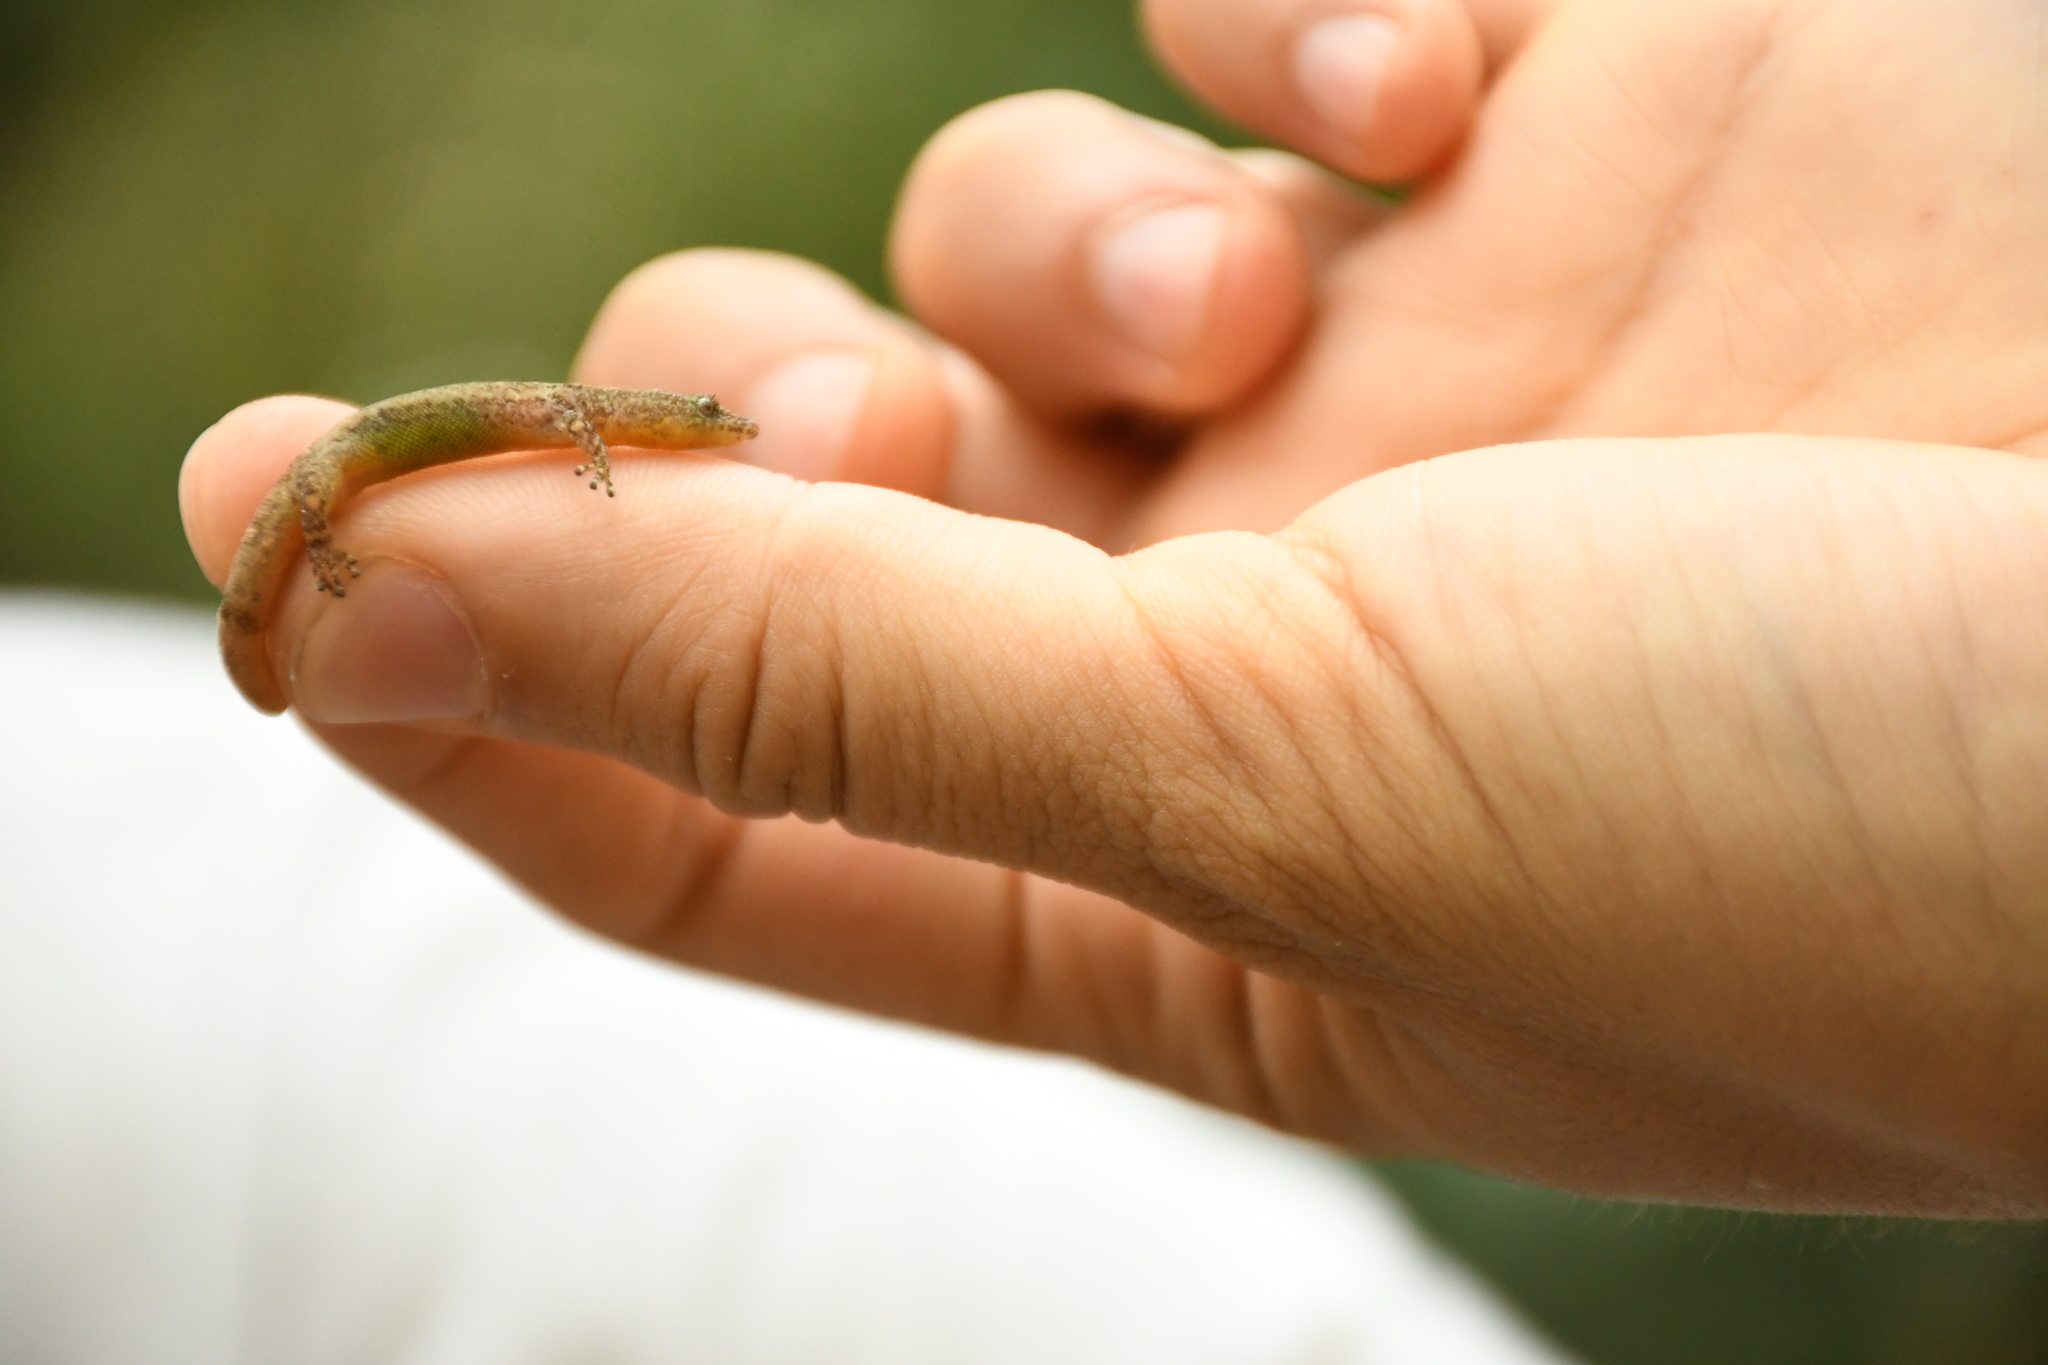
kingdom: Animalia
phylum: Chordata
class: Squamata
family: Sphaerodactylidae
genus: Sphaerodactylus
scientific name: Sphaerodactylus glaucus
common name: Central american collared geckolet
